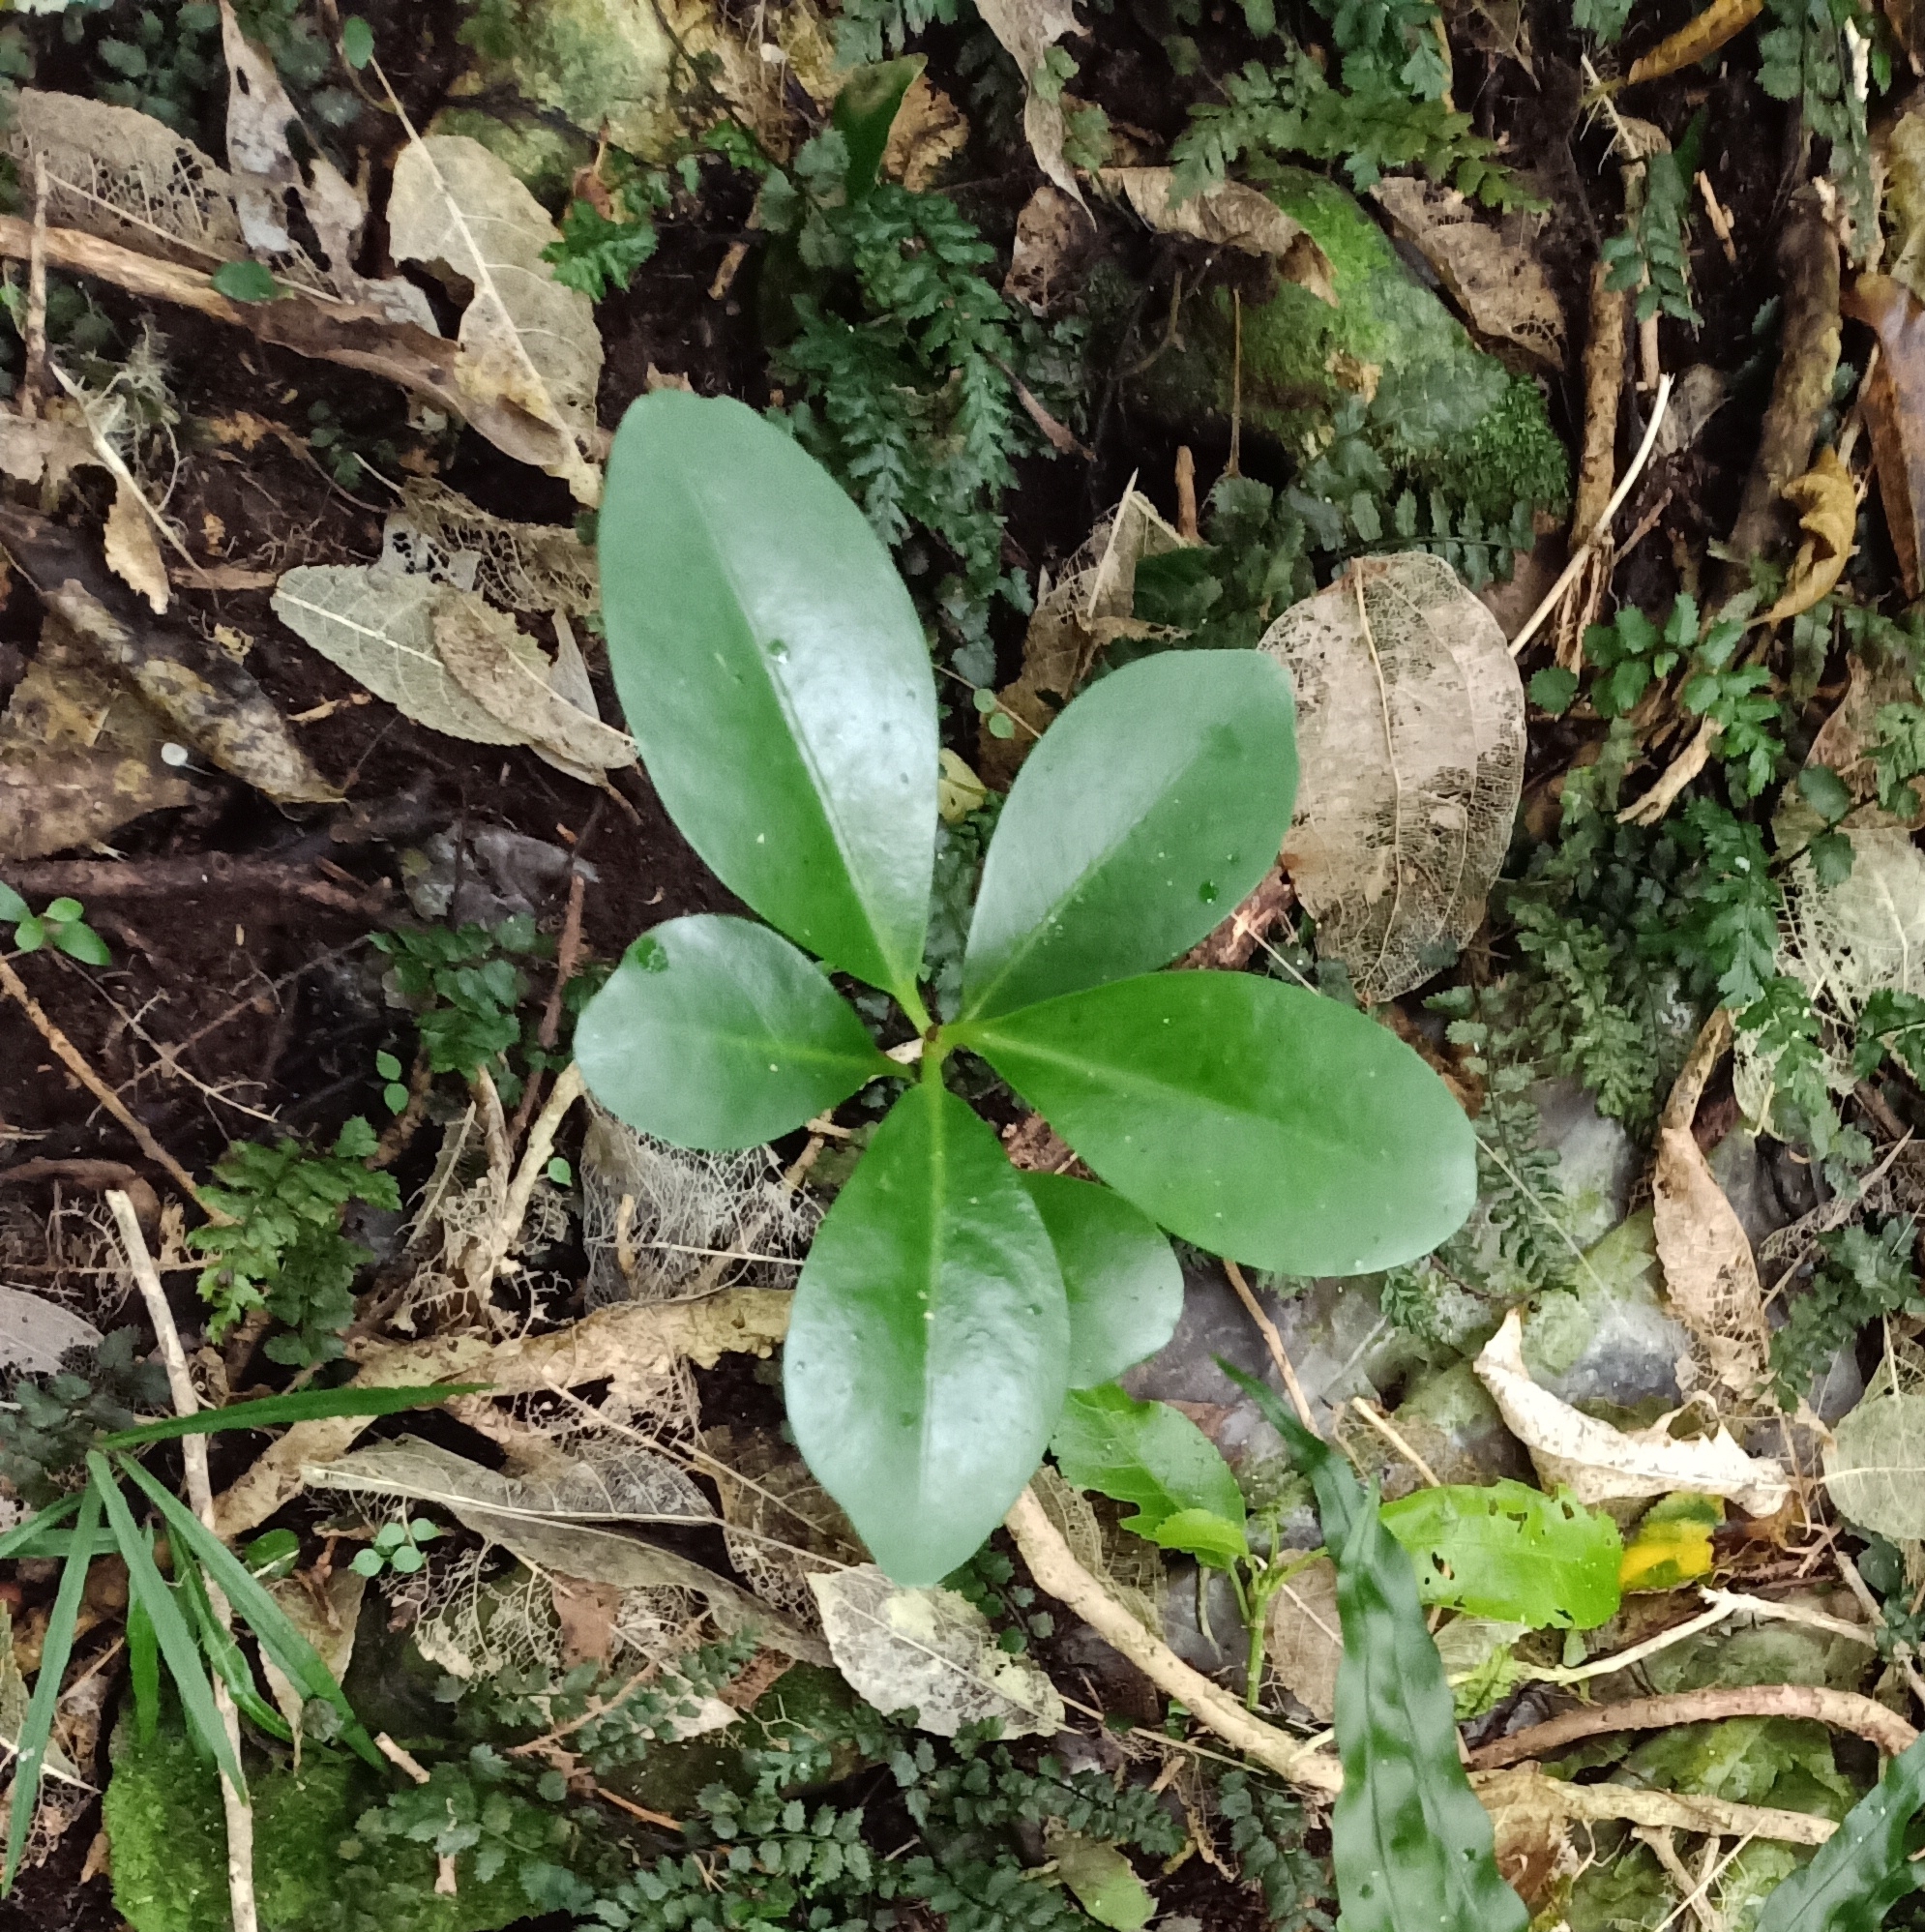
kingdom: Plantae
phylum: Tracheophyta
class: Magnoliopsida
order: Cucurbitales
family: Corynocarpaceae
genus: Corynocarpus
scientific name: Corynocarpus laevigatus
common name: New zealand laurel
